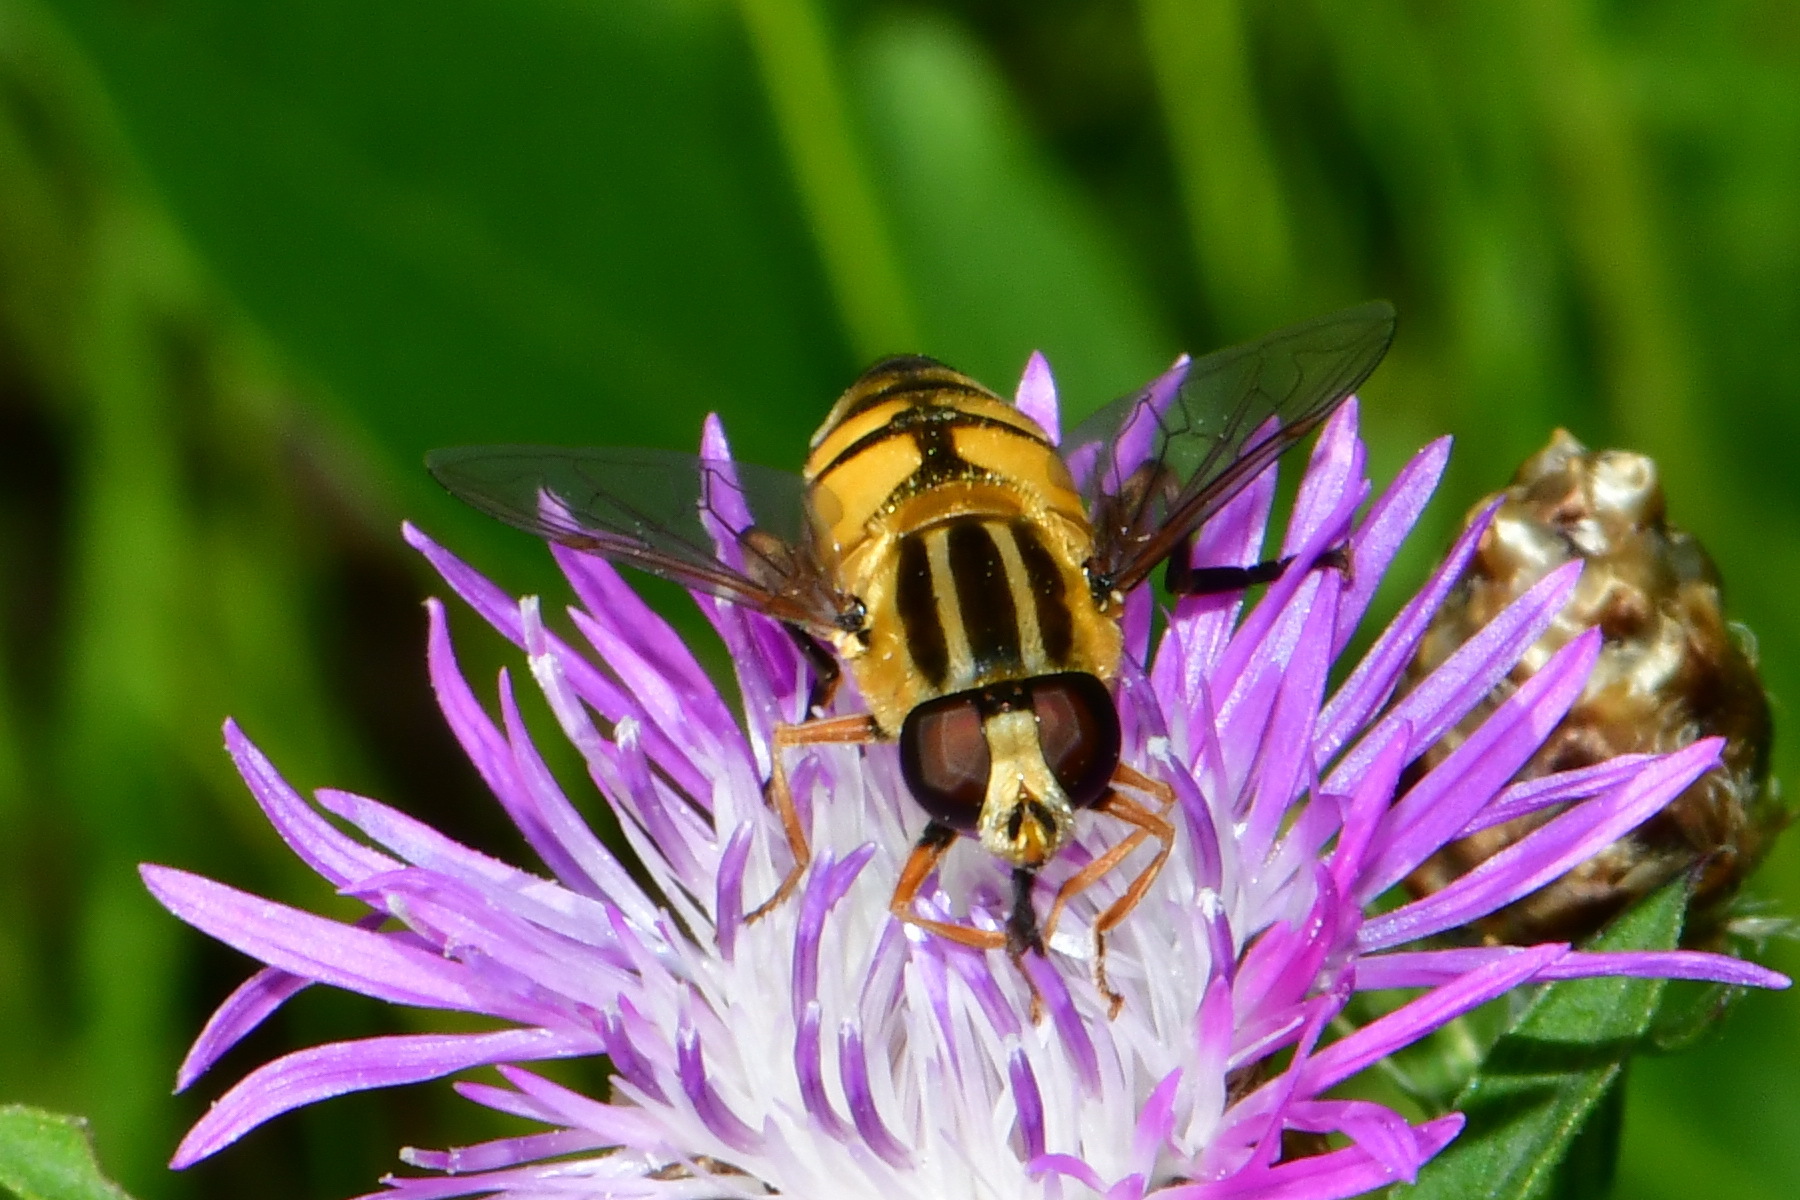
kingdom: Animalia
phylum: Arthropoda
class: Insecta
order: Diptera
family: Syrphidae
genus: Helophilus
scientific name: Helophilus trivittatus
